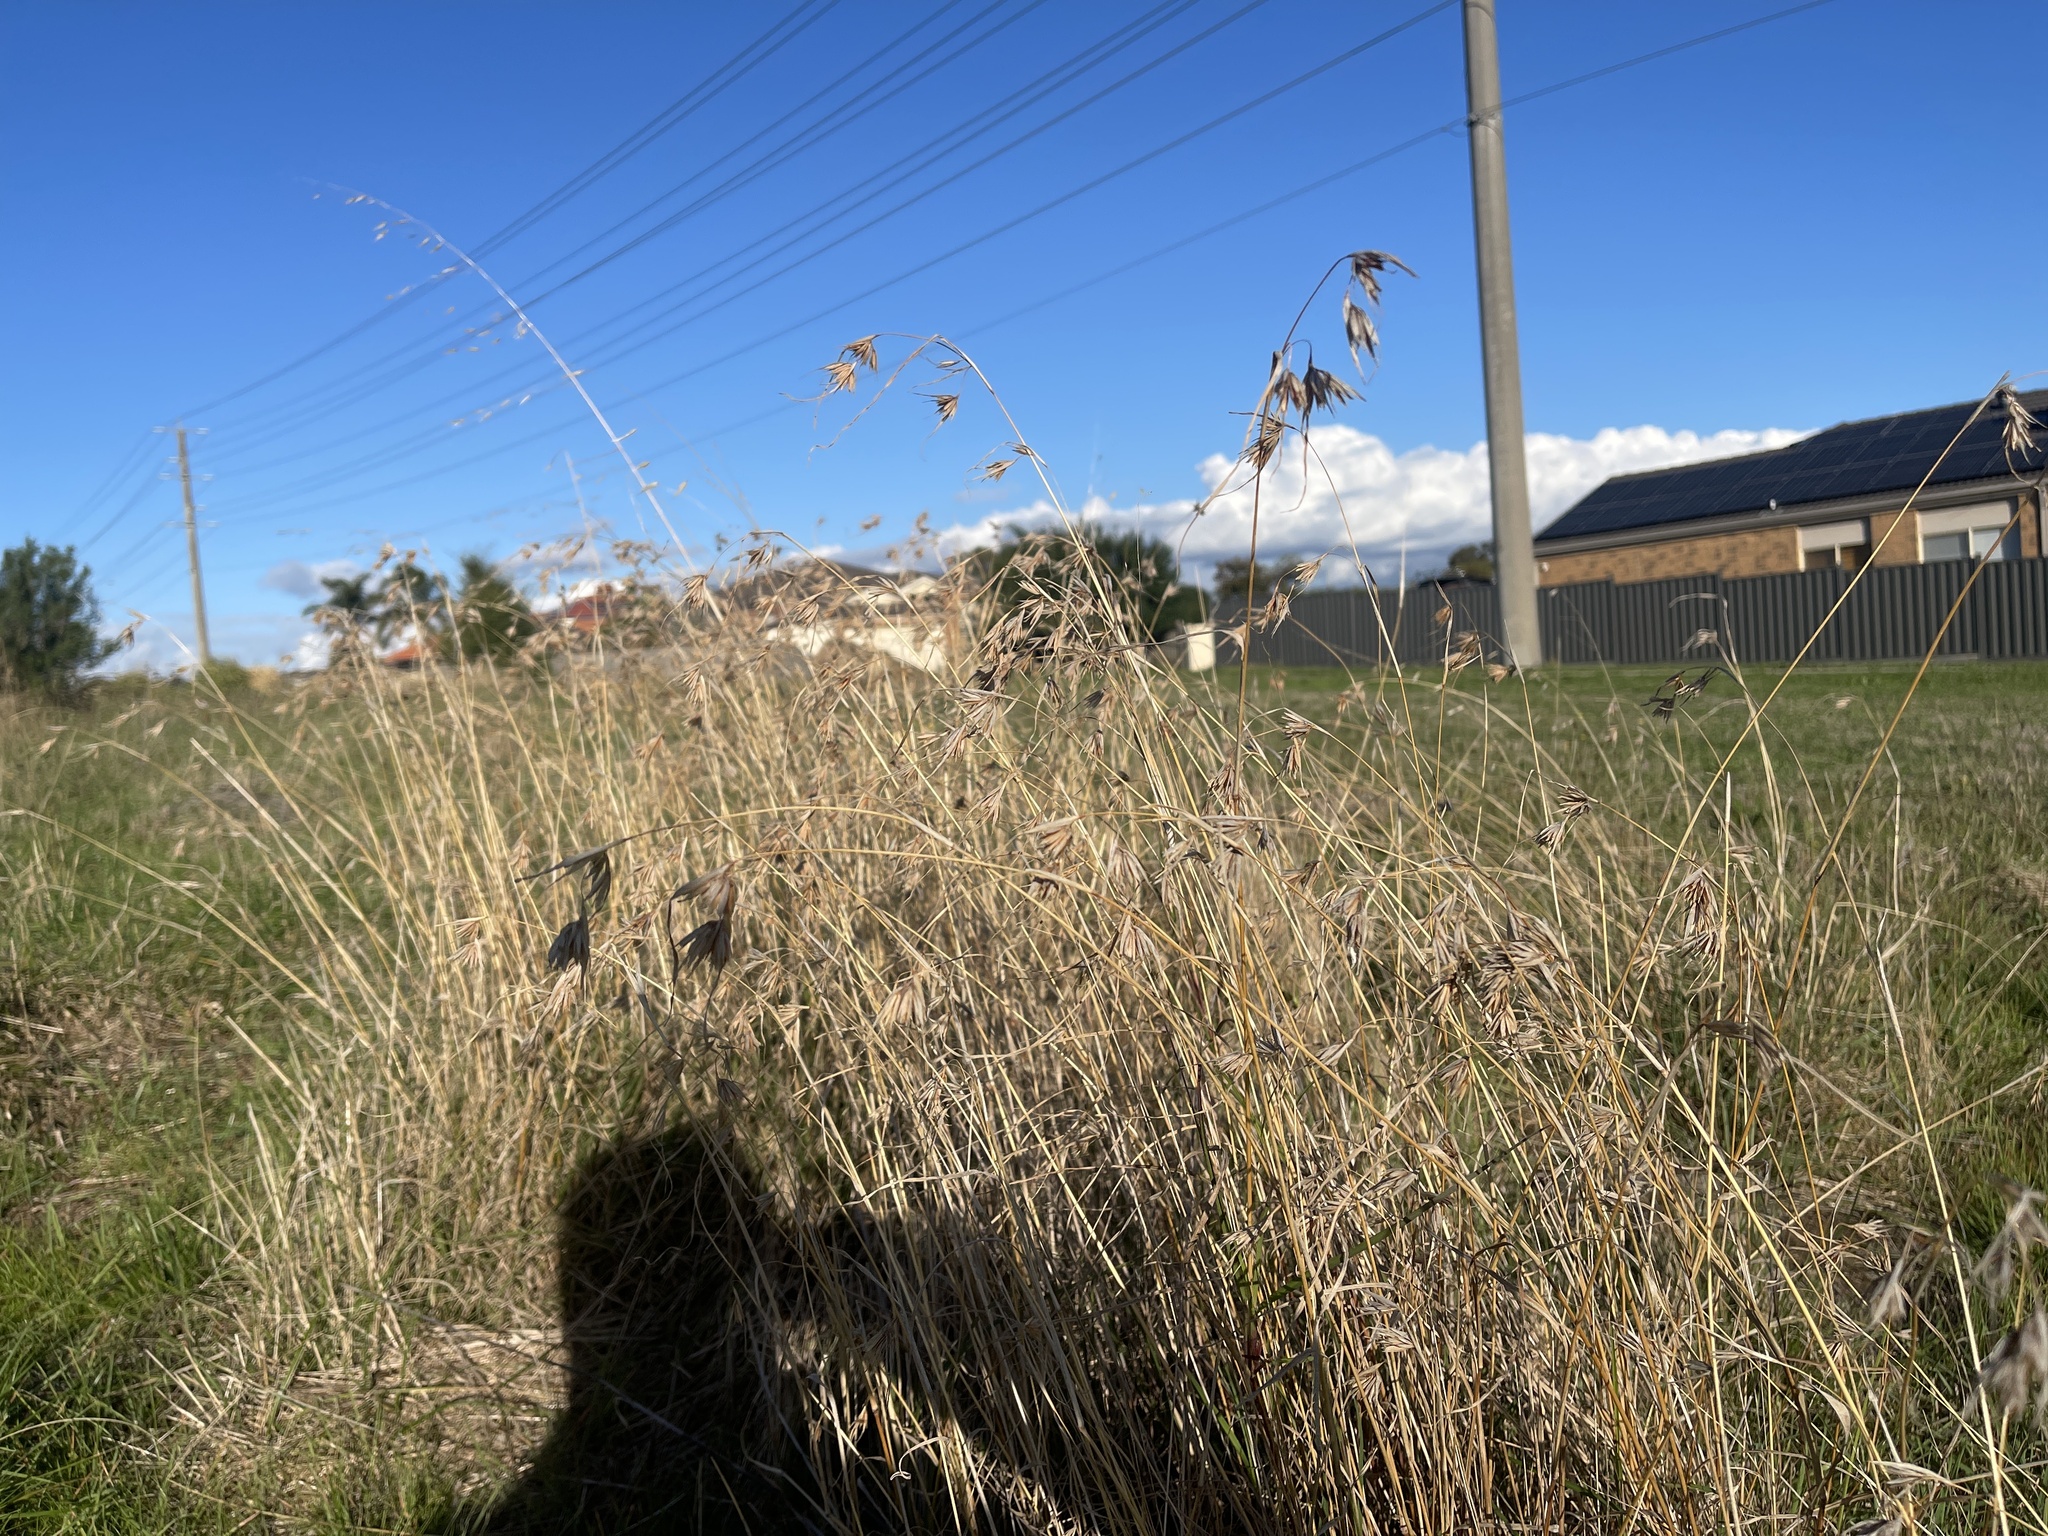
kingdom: Plantae
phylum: Tracheophyta
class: Liliopsida
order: Poales
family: Poaceae
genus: Themeda
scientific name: Themeda triandra
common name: Kangaroo grass
